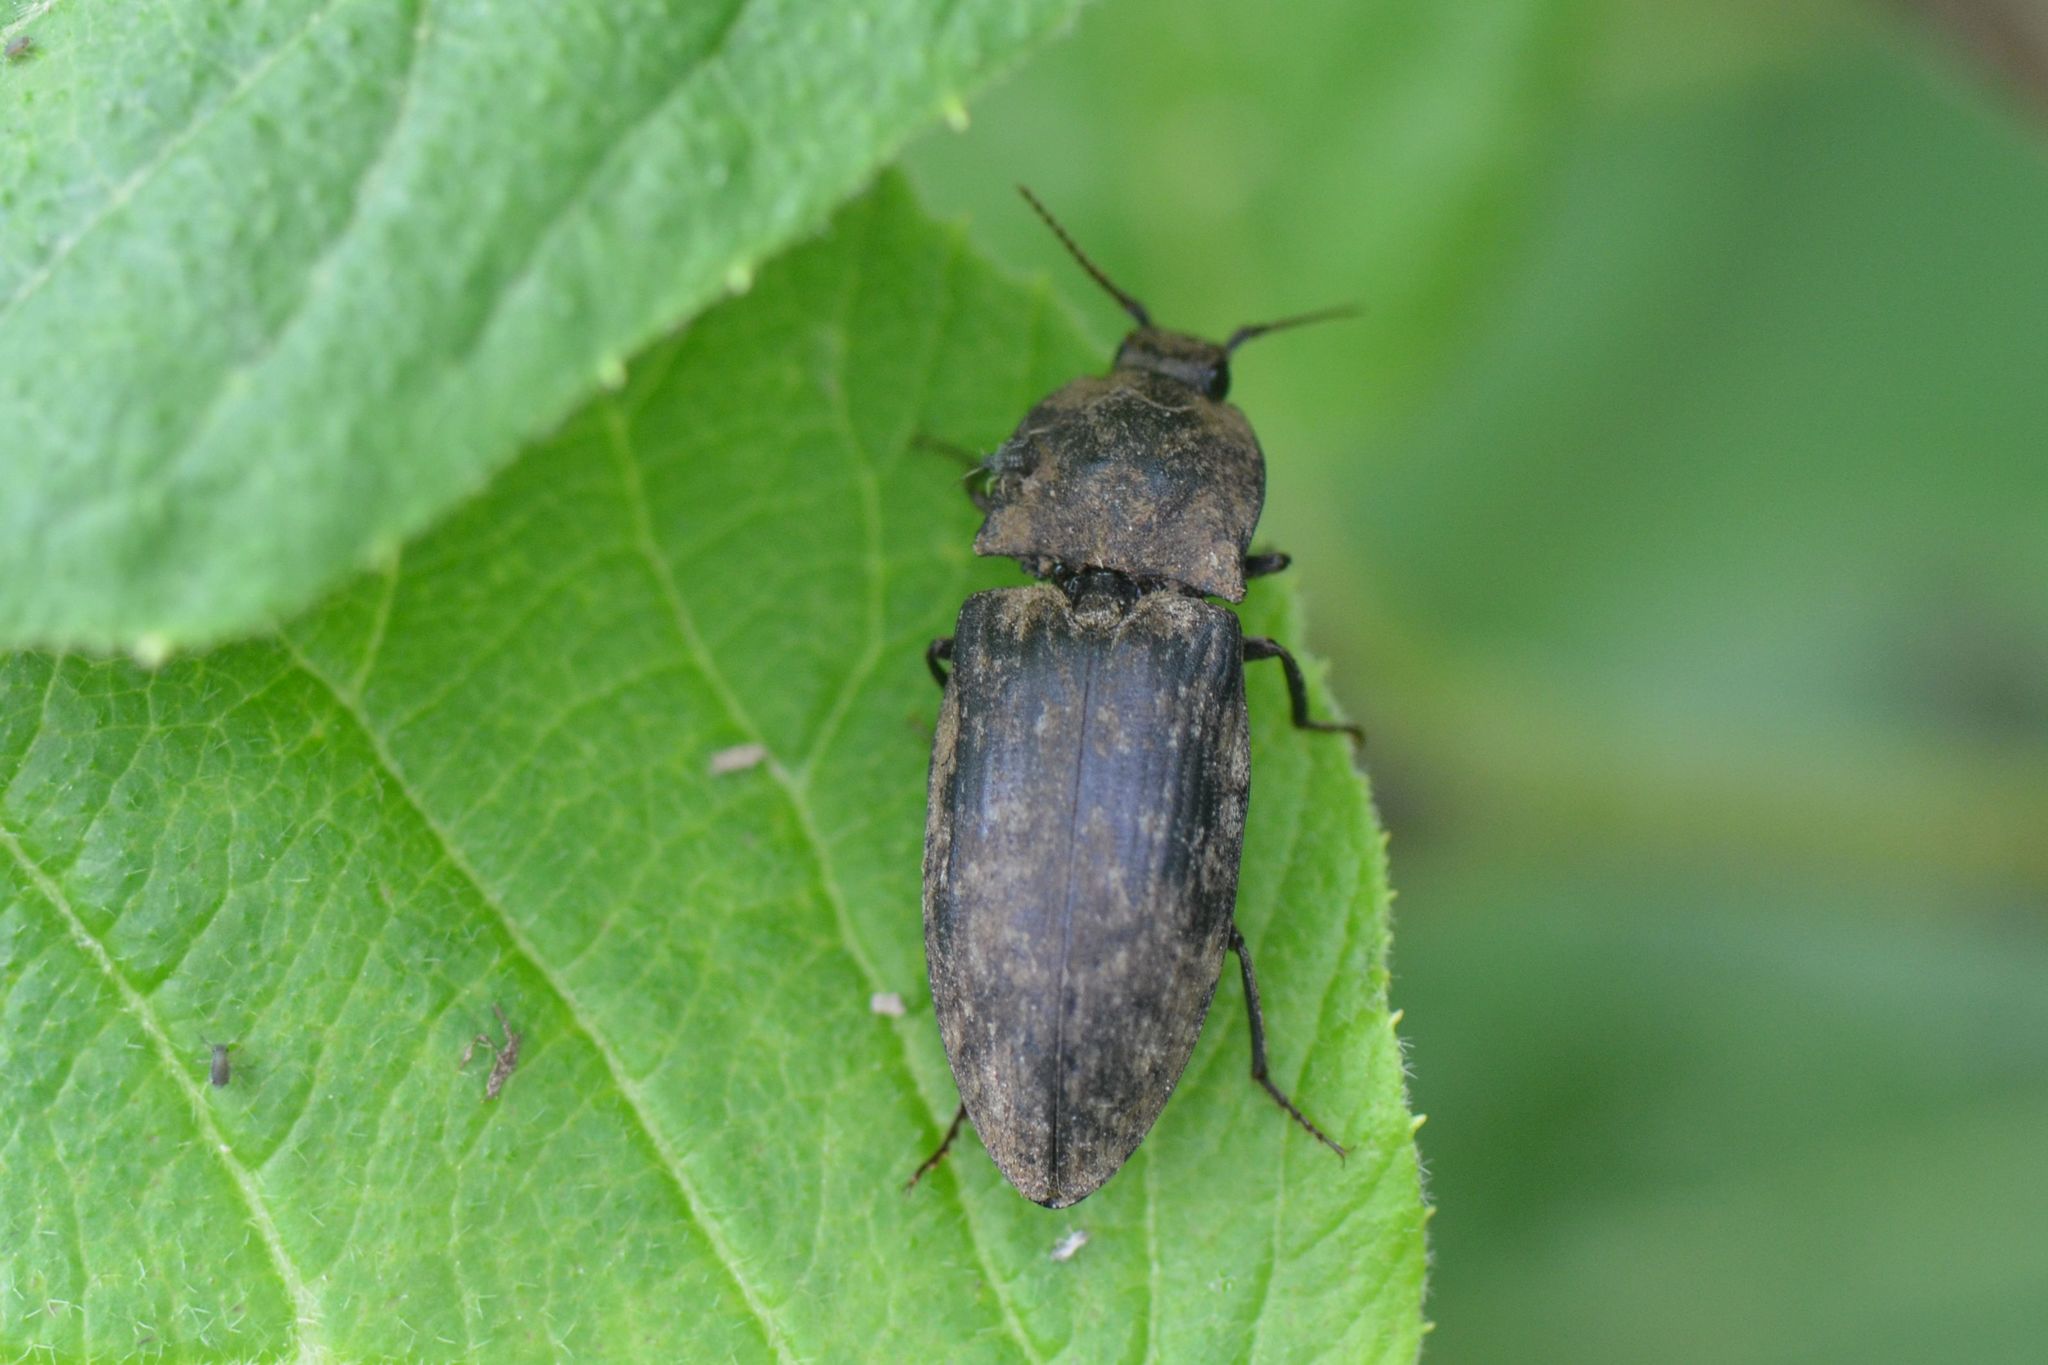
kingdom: Animalia
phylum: Arthropoda
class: Insecta
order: Coleoptera
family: Elateridae
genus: Agrypnus
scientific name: Agrypnus murinus
